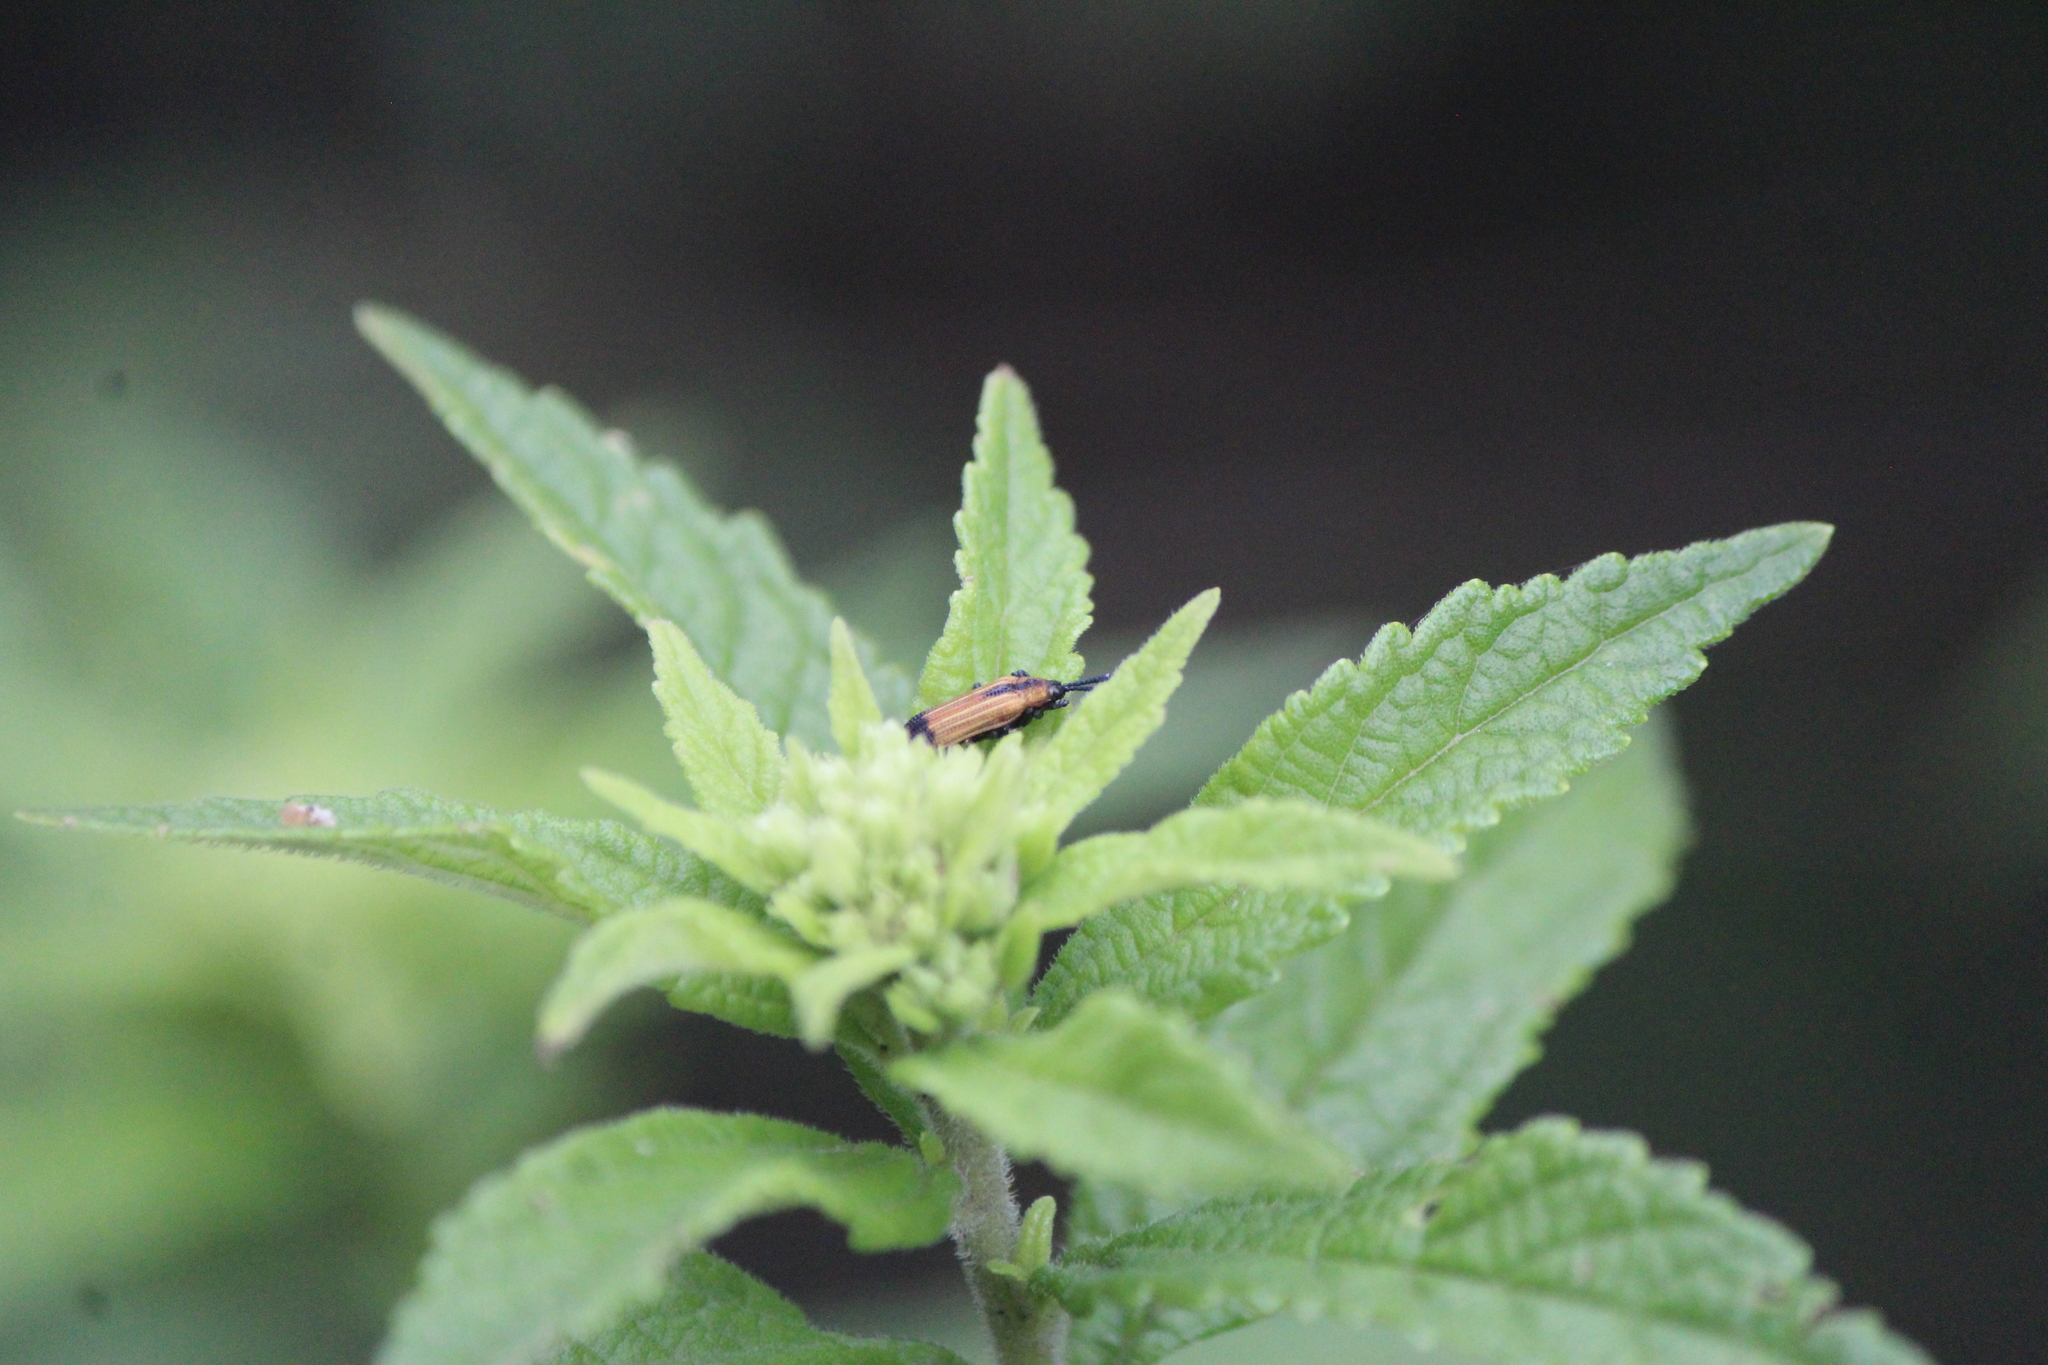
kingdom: Animalia
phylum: Arthropoda
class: Insecta
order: Coleoptera
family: Chrysomelidae
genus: Pentispa
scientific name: Pentispa melanura
